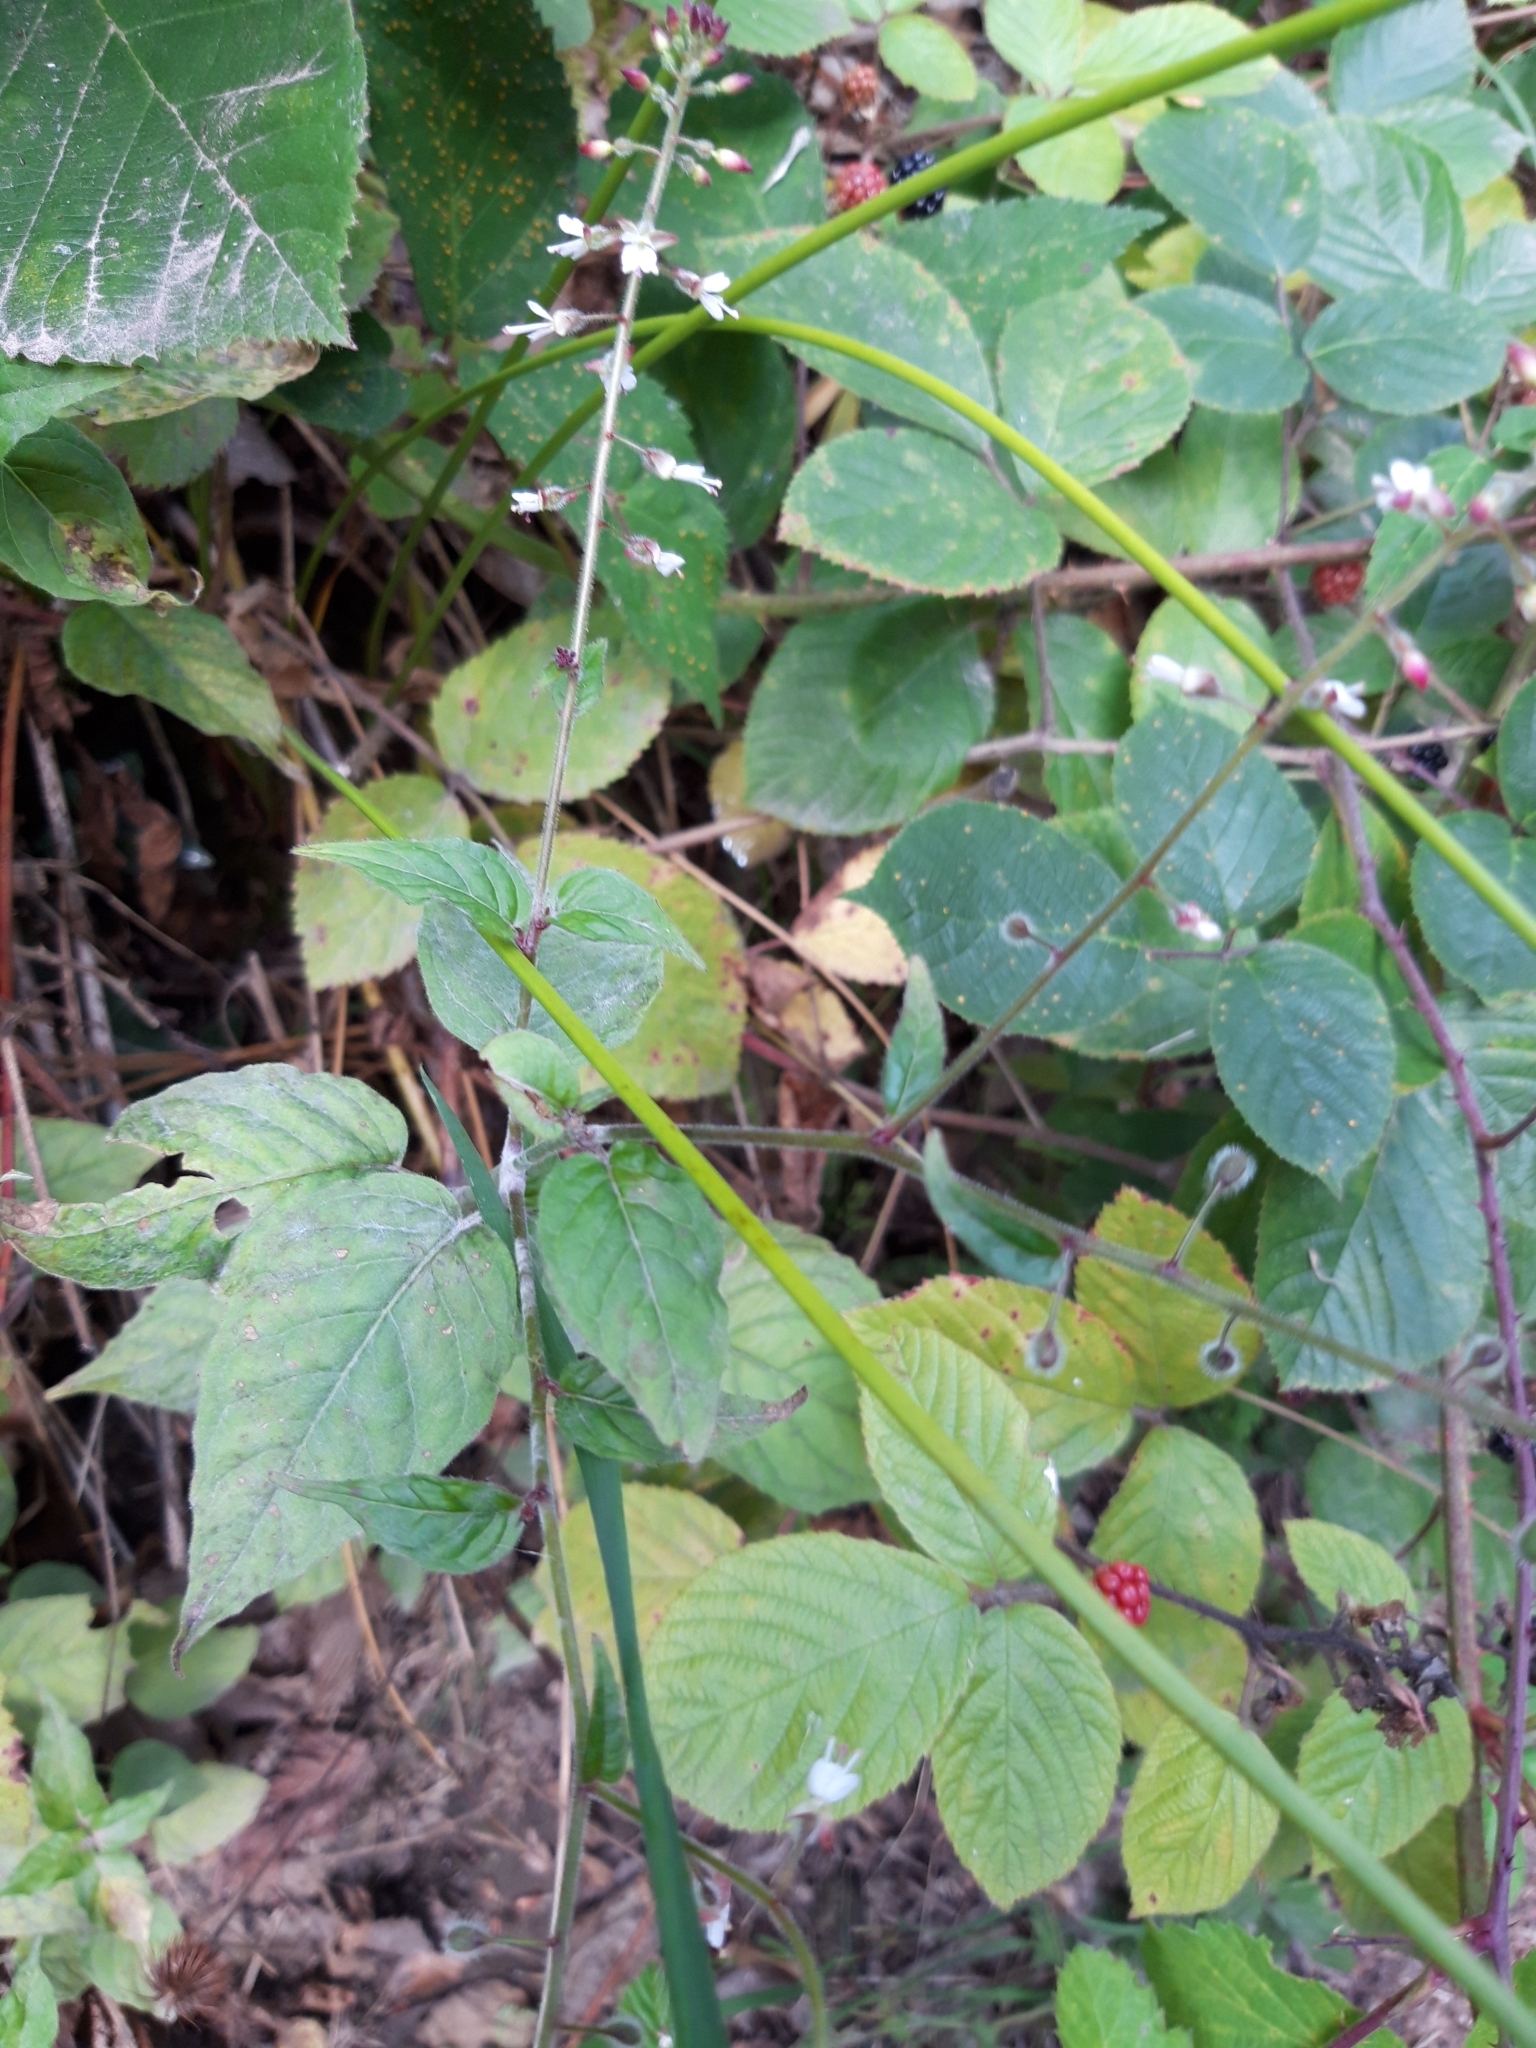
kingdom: Plantae
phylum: Tracheophyta
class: Magnoliopsida
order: Myrtales
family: Onagraceae
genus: Circaea
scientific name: Circaea lutetiana
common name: Enchanter's-nightshade
